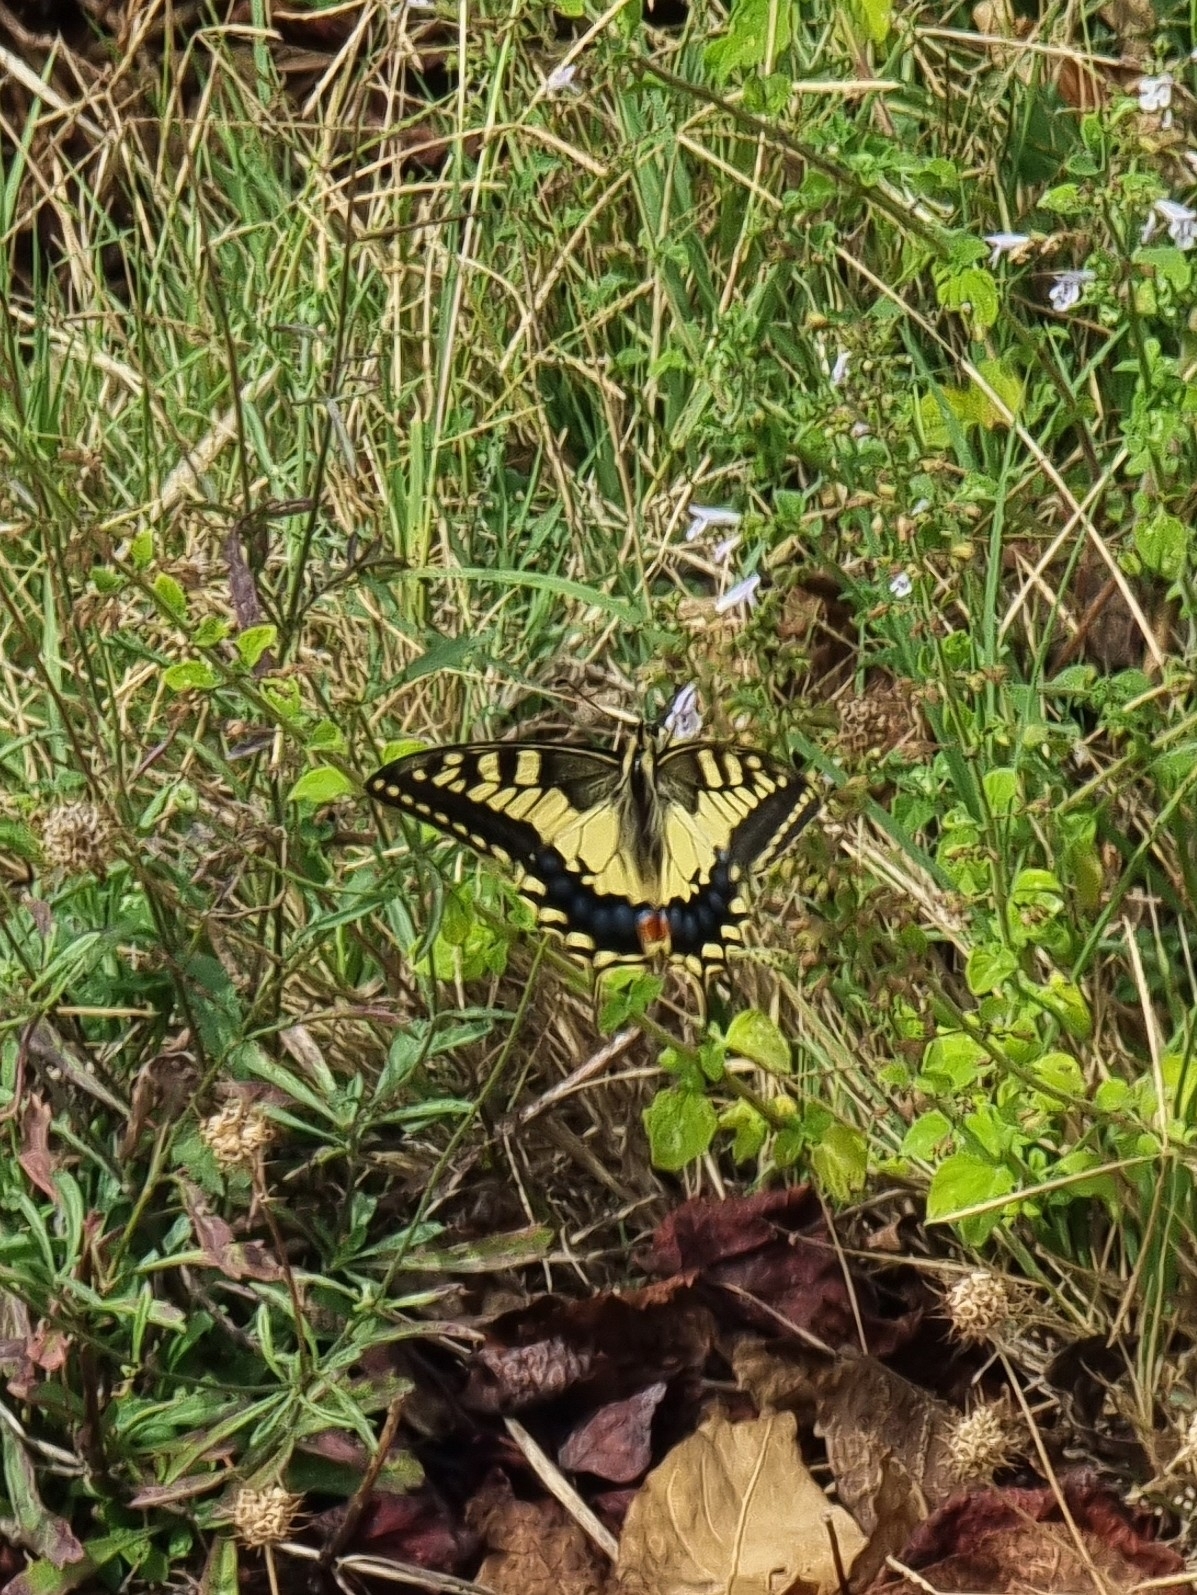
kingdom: Animalia
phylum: Arthropoda
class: Insecta
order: Lepidoptera
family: Papilionidae
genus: Papilio
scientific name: Papilio machaon
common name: Swallowtail
